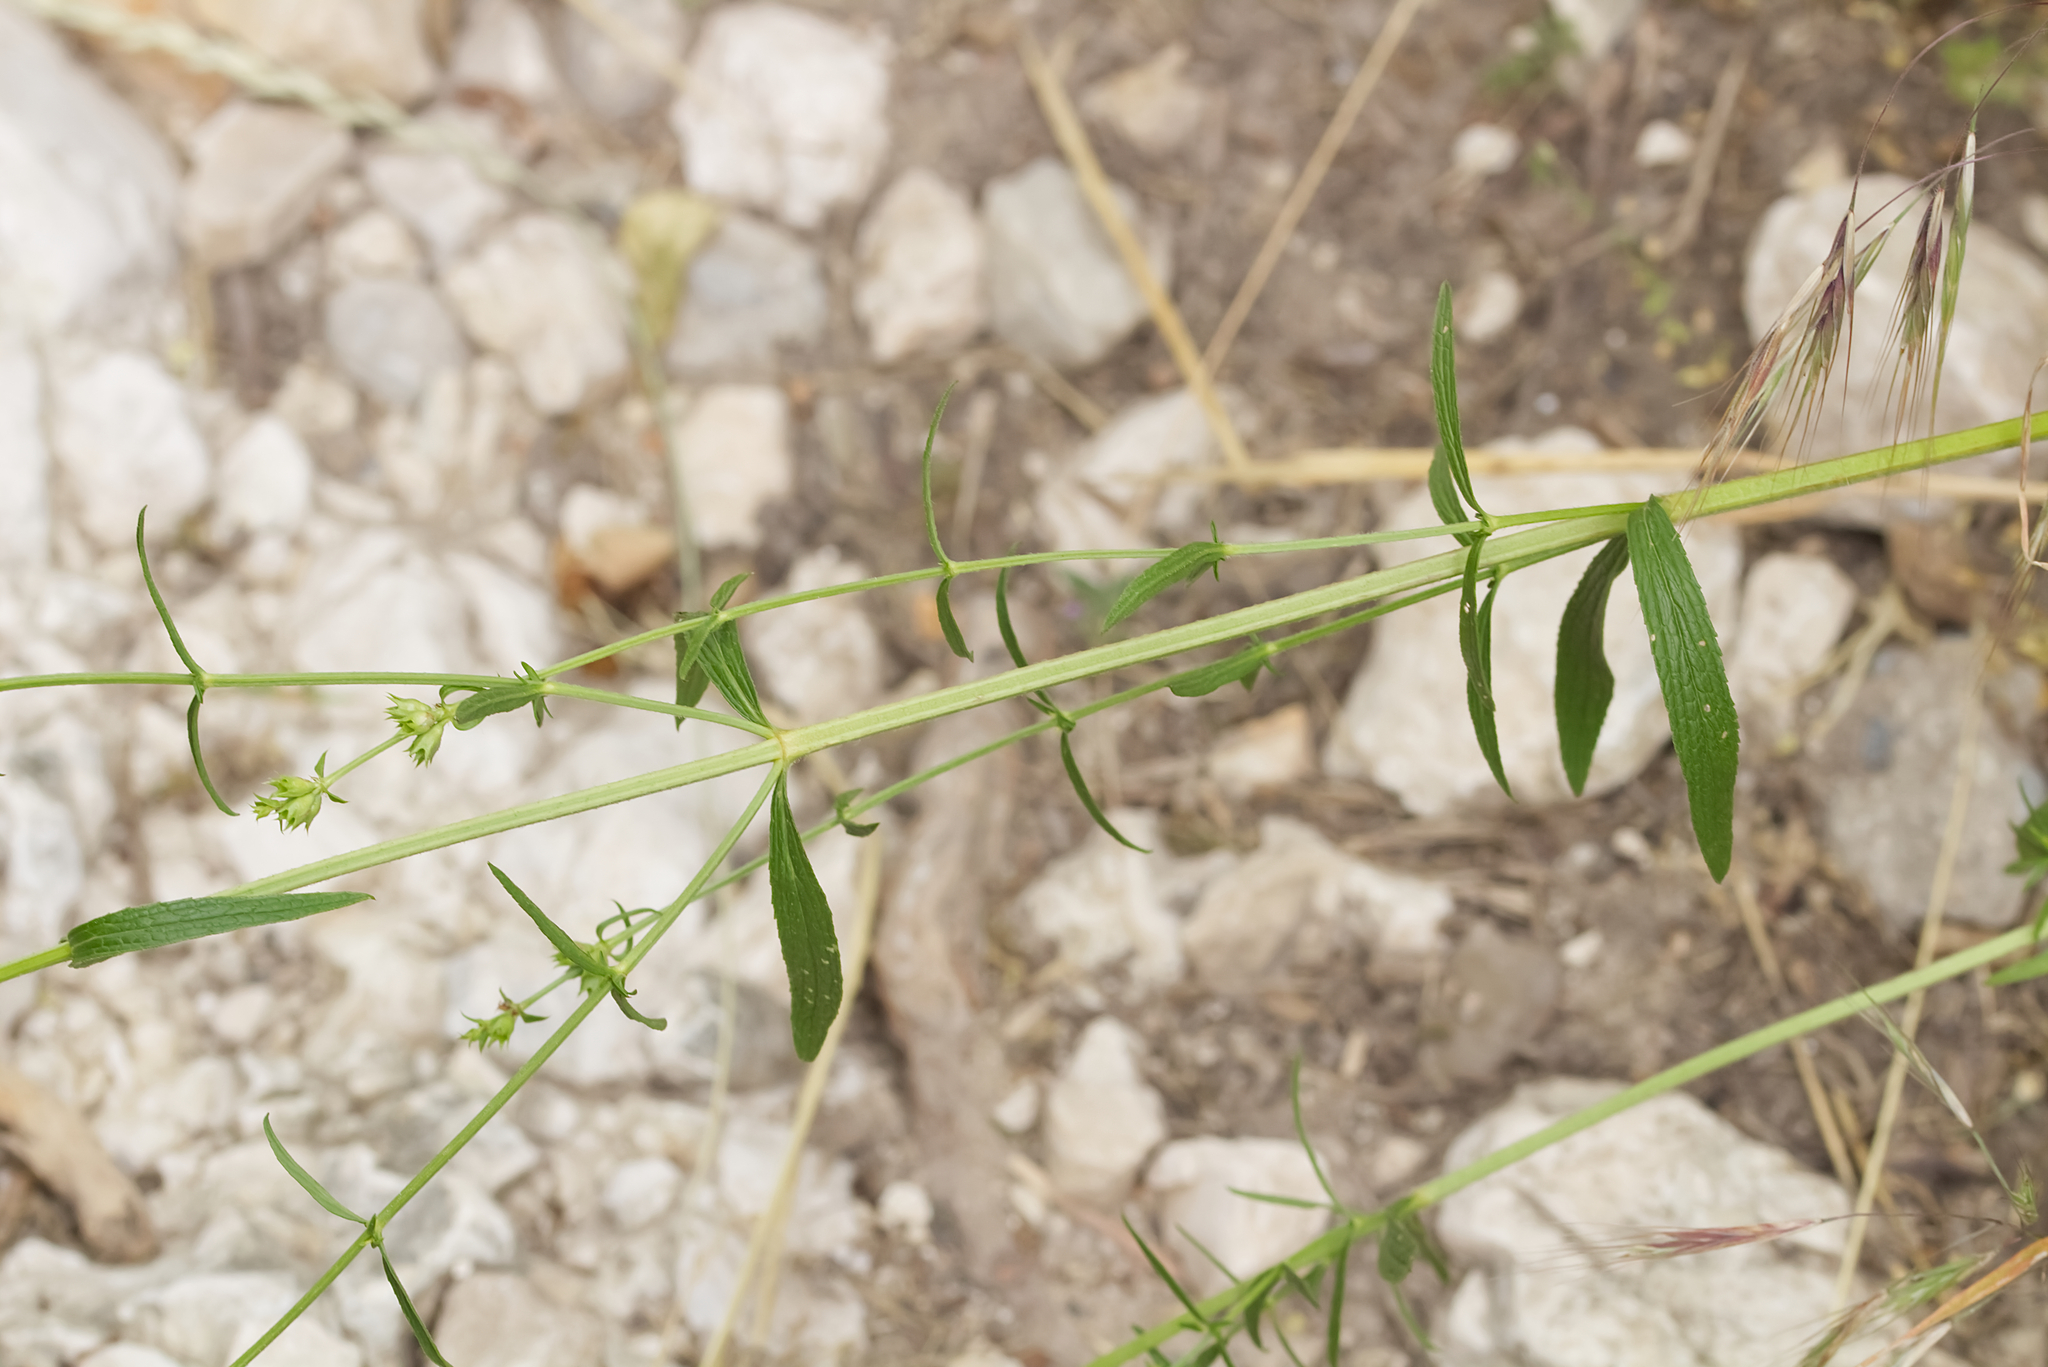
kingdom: Plantae
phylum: Tracheophyta
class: Magnoliopsida
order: Lamiales
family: Lamiaceae
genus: Stachys
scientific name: Stachys recta
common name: Perennial yellow-woundwort
